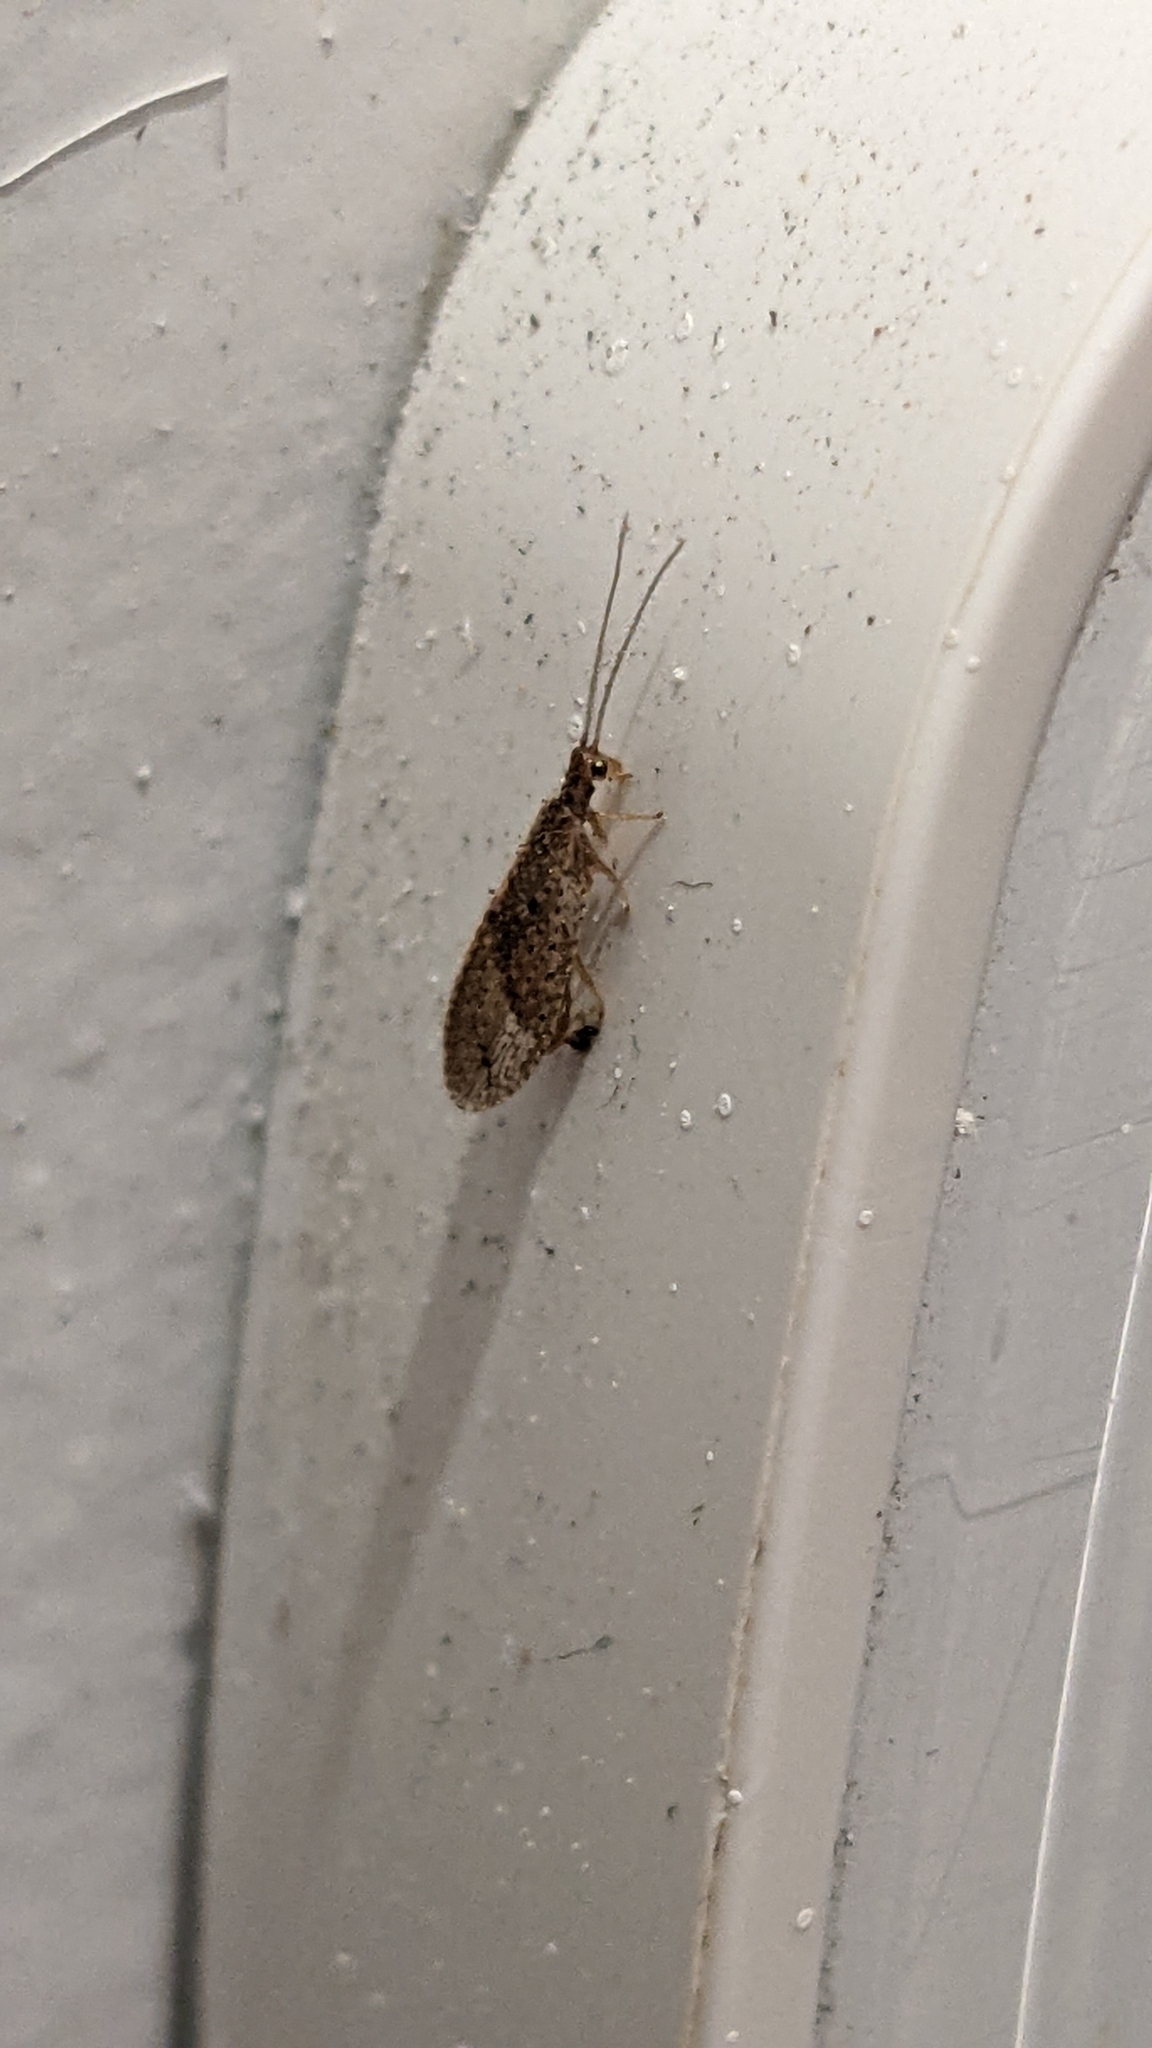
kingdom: Animalia
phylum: Arthropoda
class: Insecta
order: Neuroptera
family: Hemerobiidae
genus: Micromus
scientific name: Micromus tasmaniae
